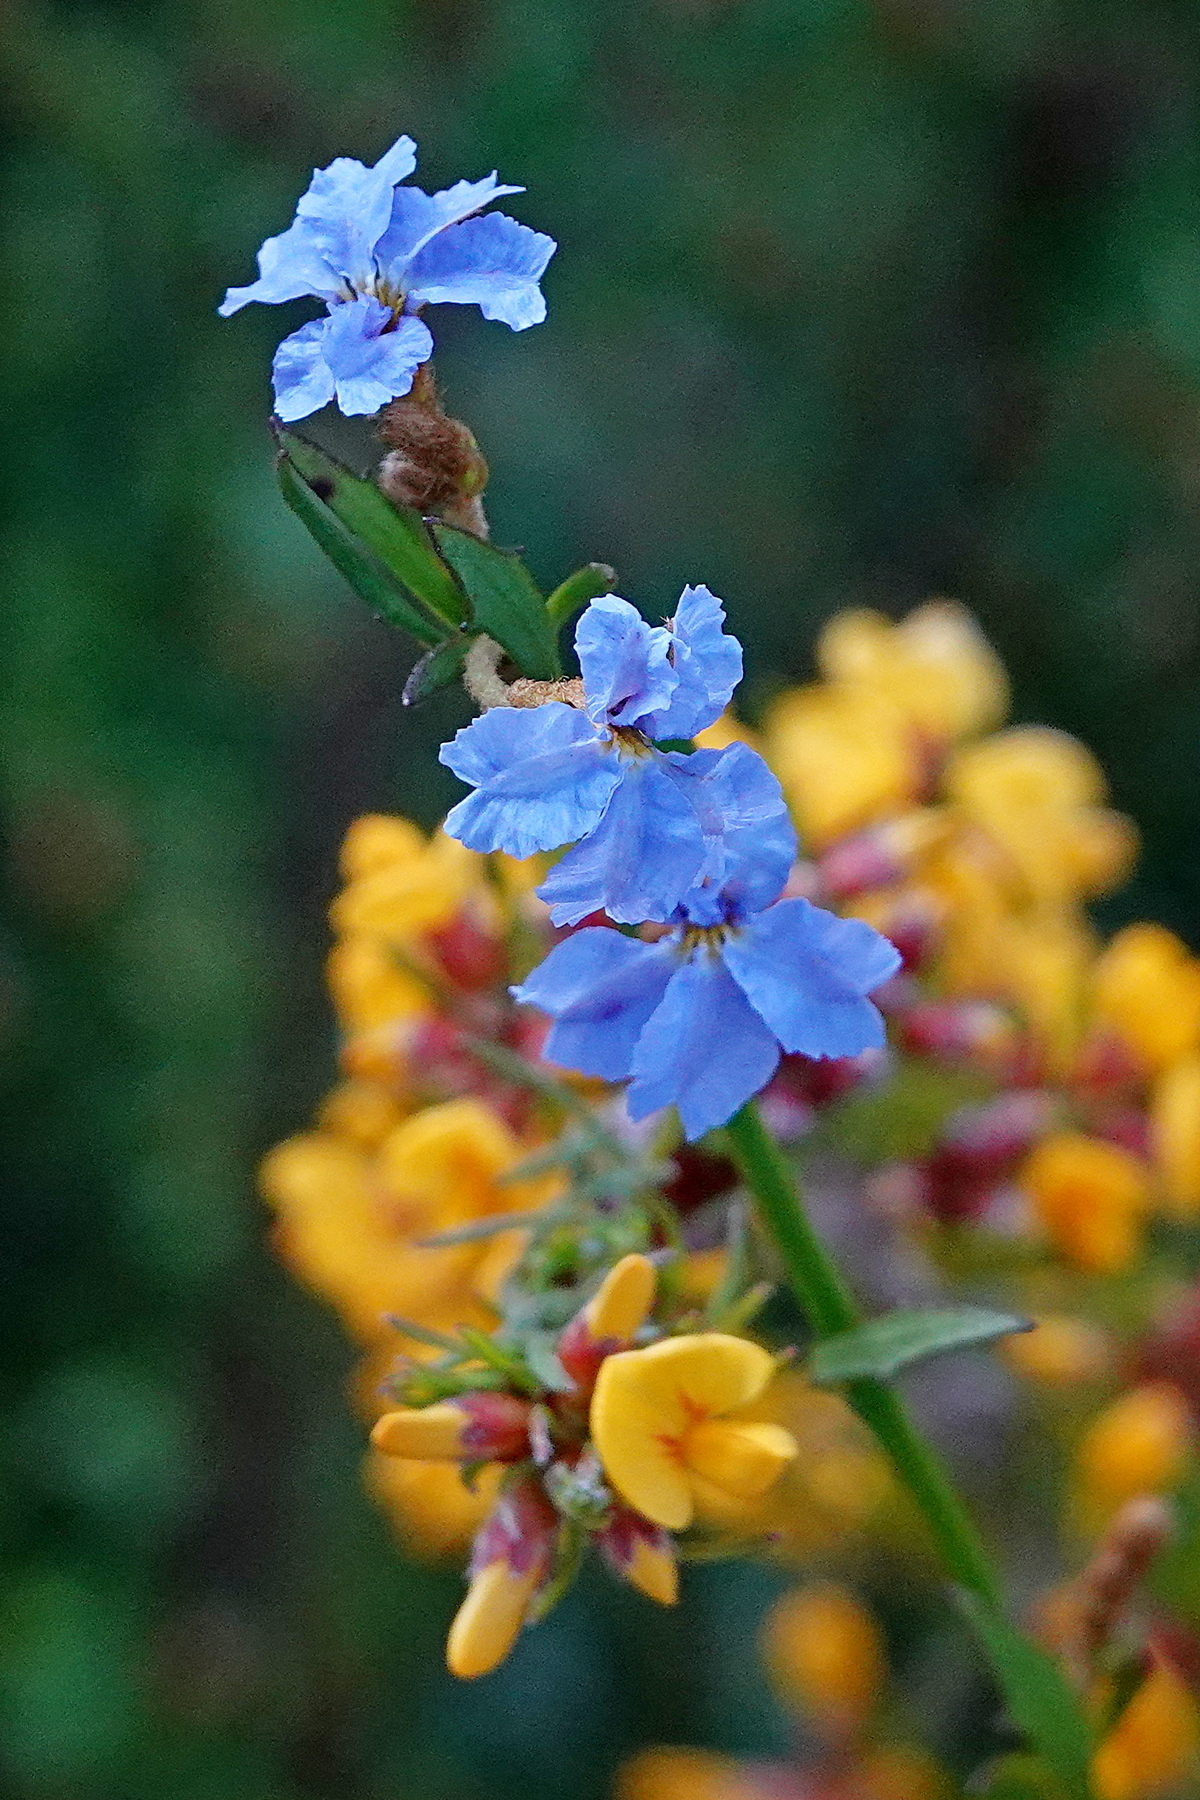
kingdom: Plantae
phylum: Tracheophyta
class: Magnoliopsida
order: Asterales
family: Goodeniaceae
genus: Dampiera
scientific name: Dampiera stricta
